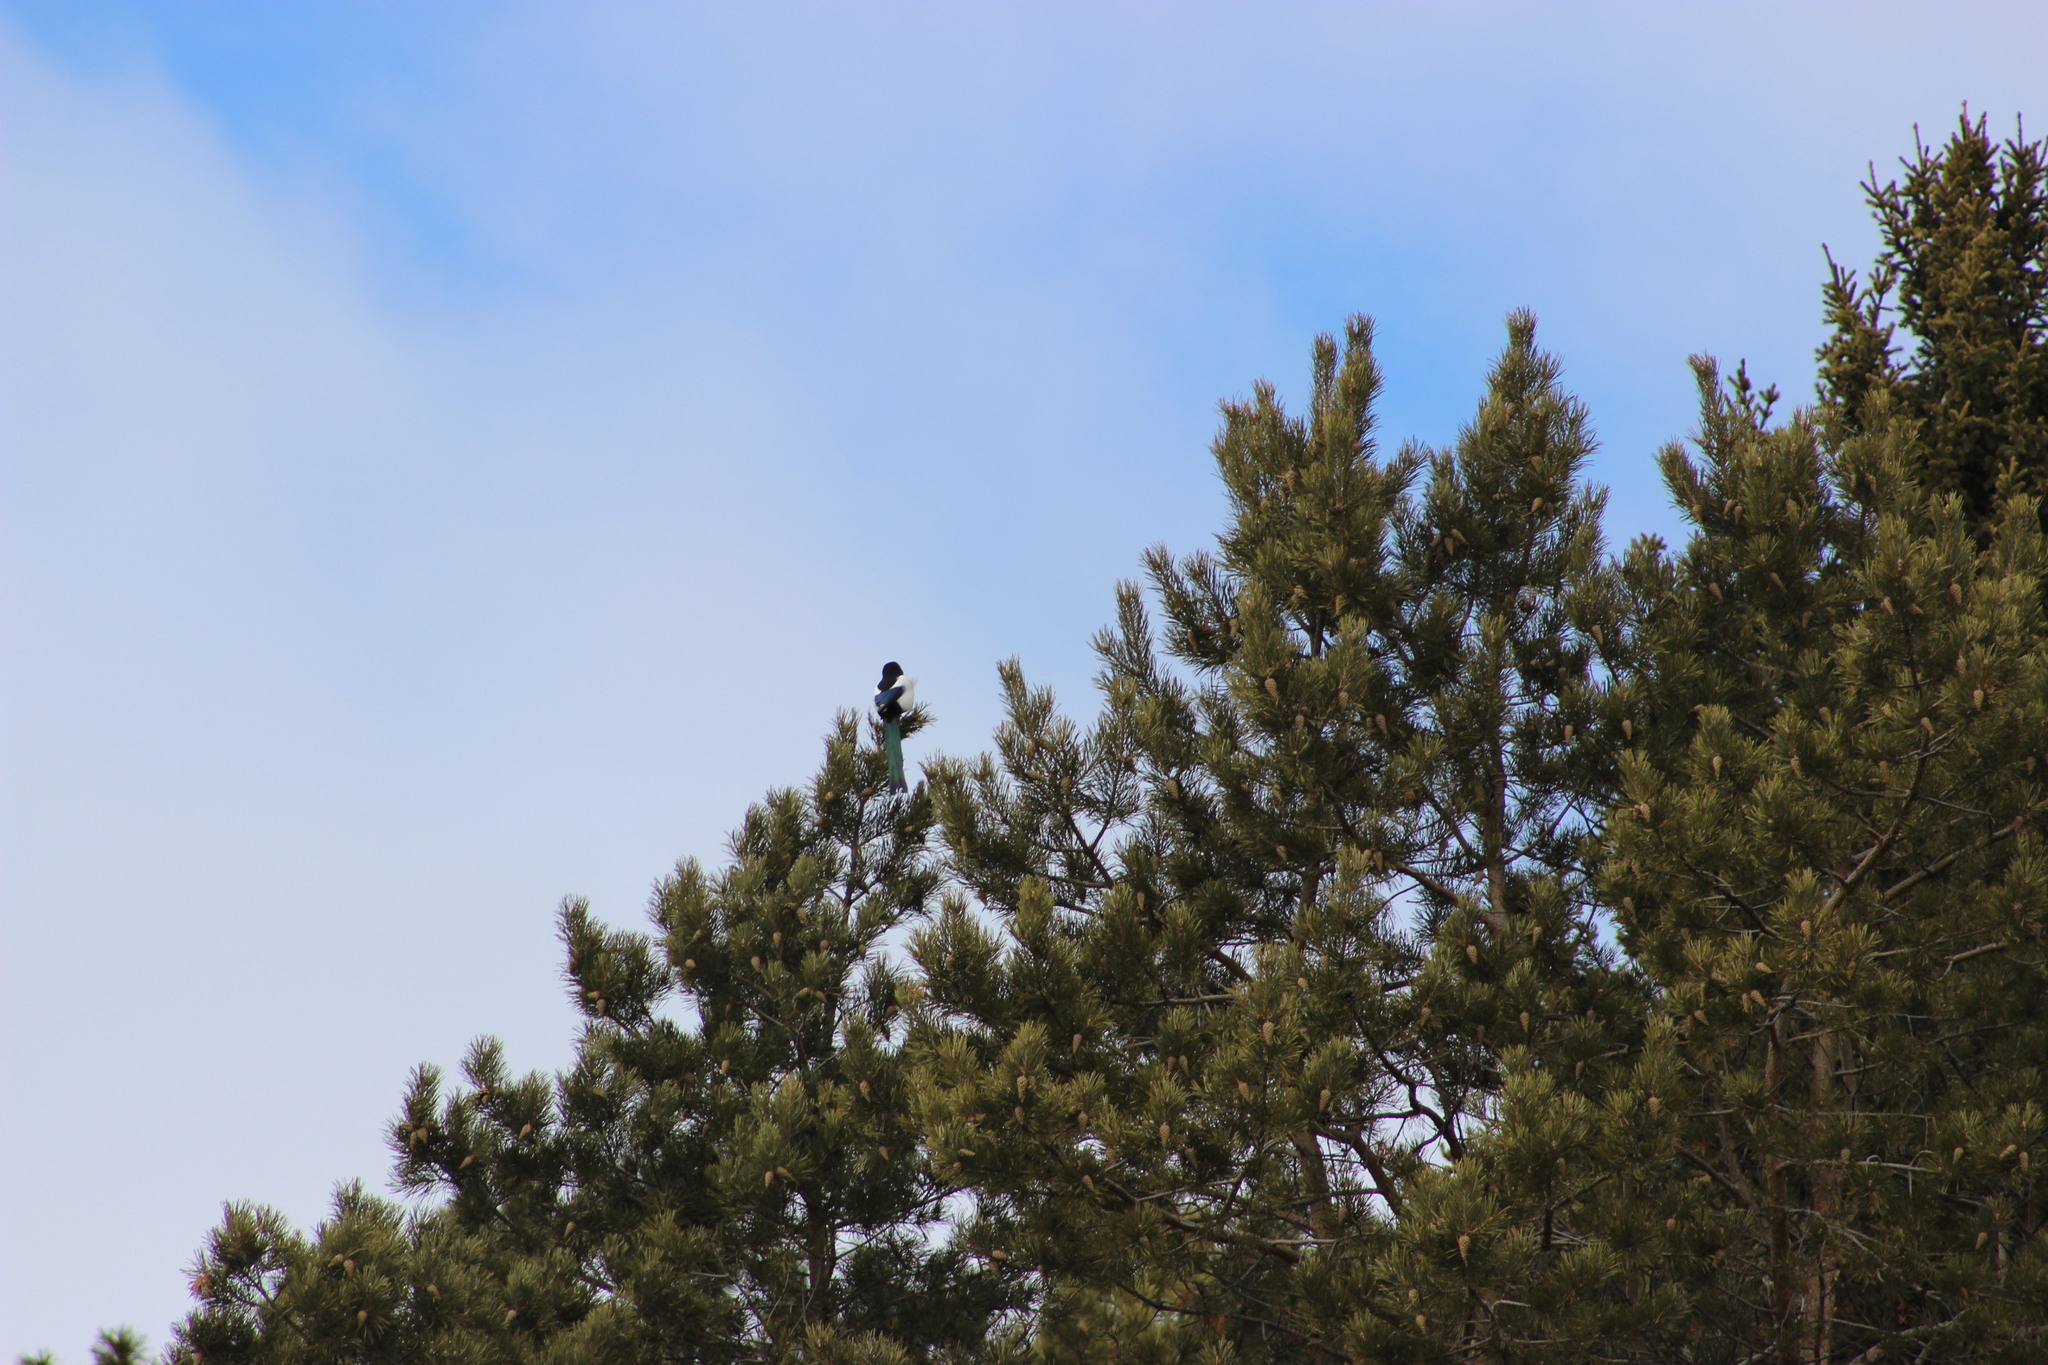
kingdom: Animalia
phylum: Chordata
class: Aves
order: Passeriformes
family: Corvidae
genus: Pica
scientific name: Pica pica
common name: Eurasian magpie
